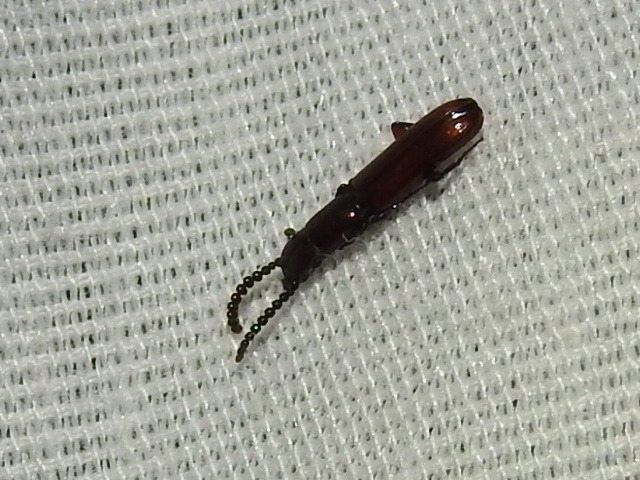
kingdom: Animalia
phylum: Arthropoda
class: Insecta
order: Coleoptera
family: Passandridae
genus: Taphroscelidia
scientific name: Taphroscelidia linearis
